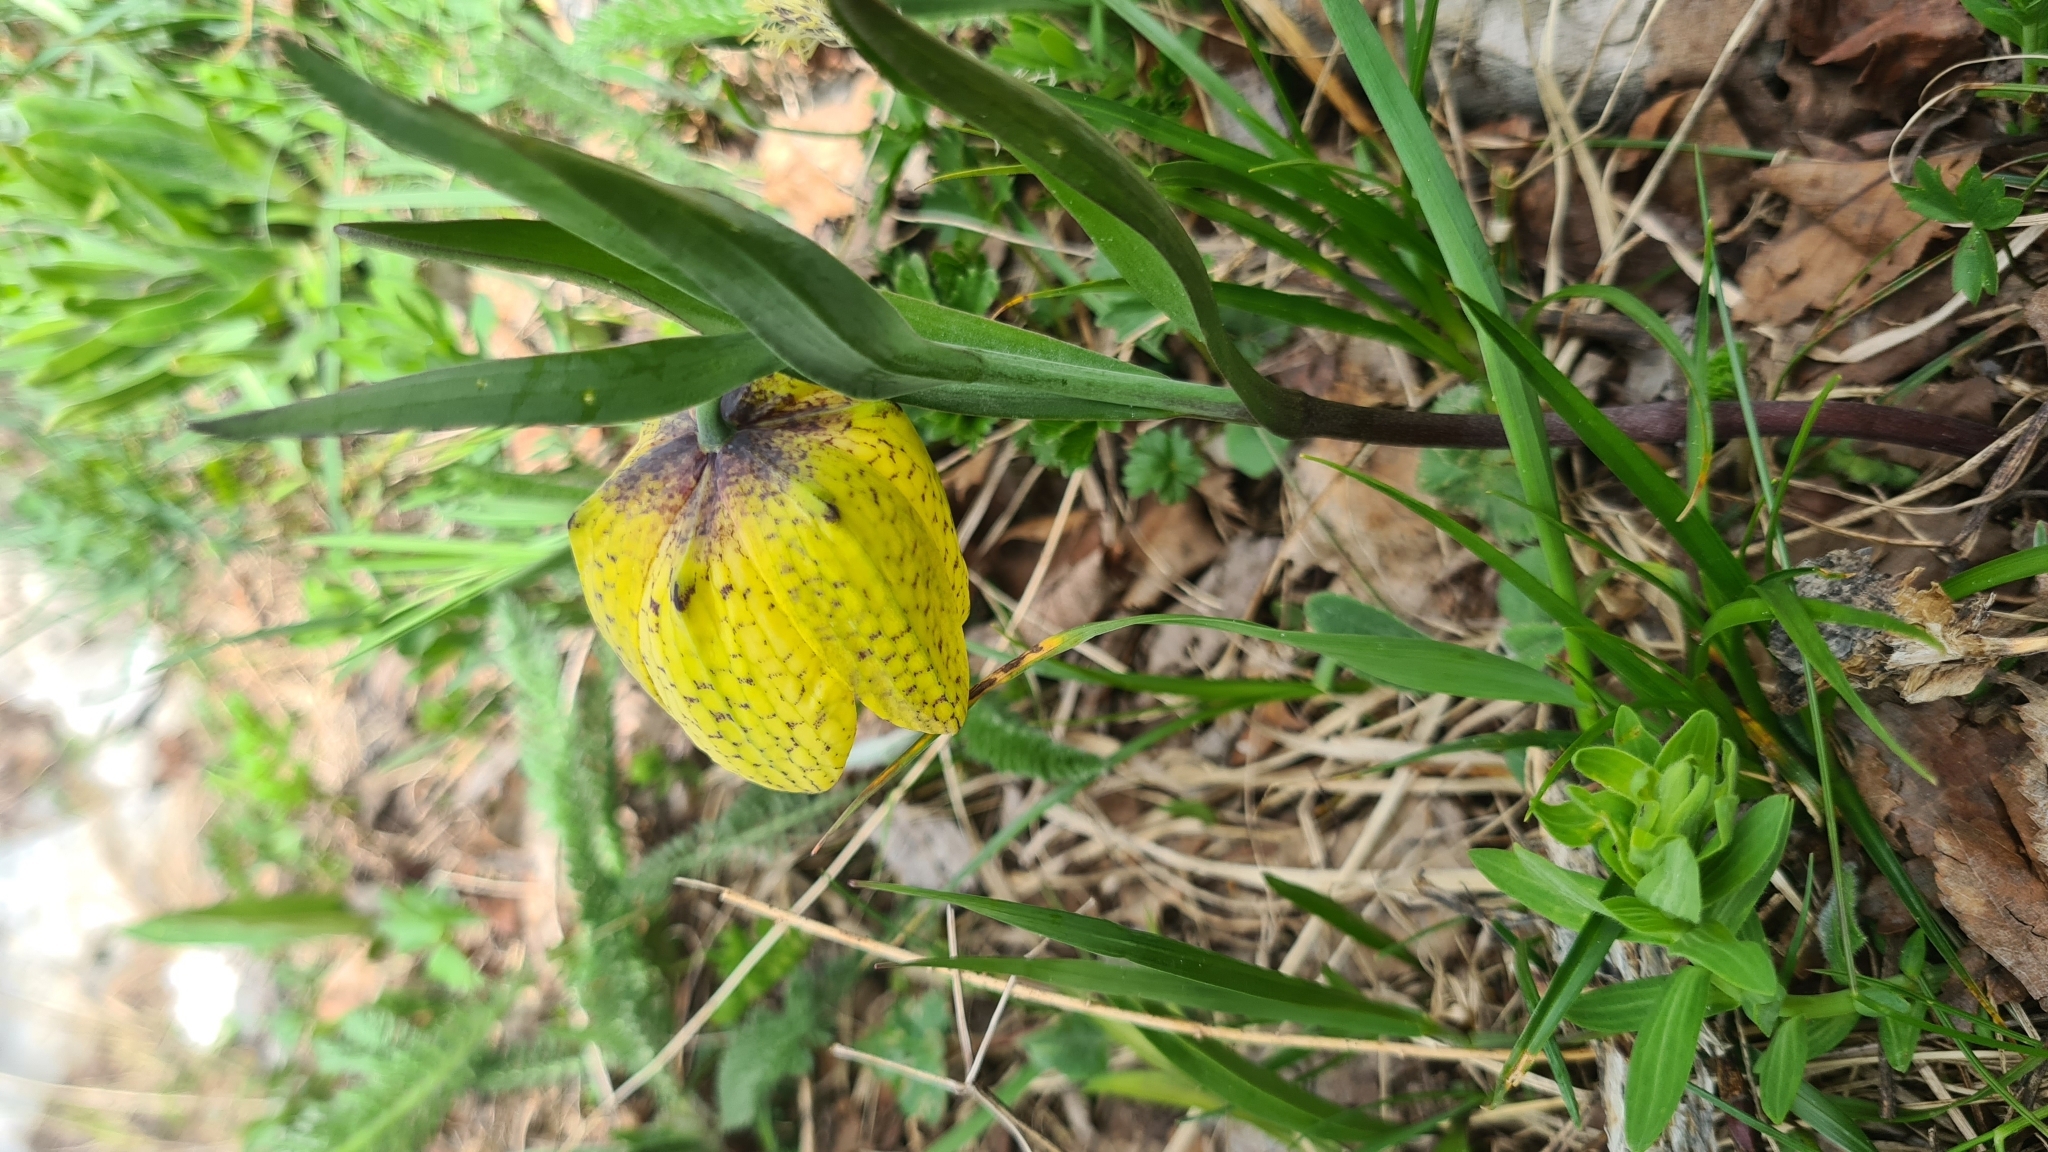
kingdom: Plantae
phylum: Tracheophyta
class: Liliopsida
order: Liliales
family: Liliaceae
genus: Fritillaria
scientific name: Fritillaria collina
